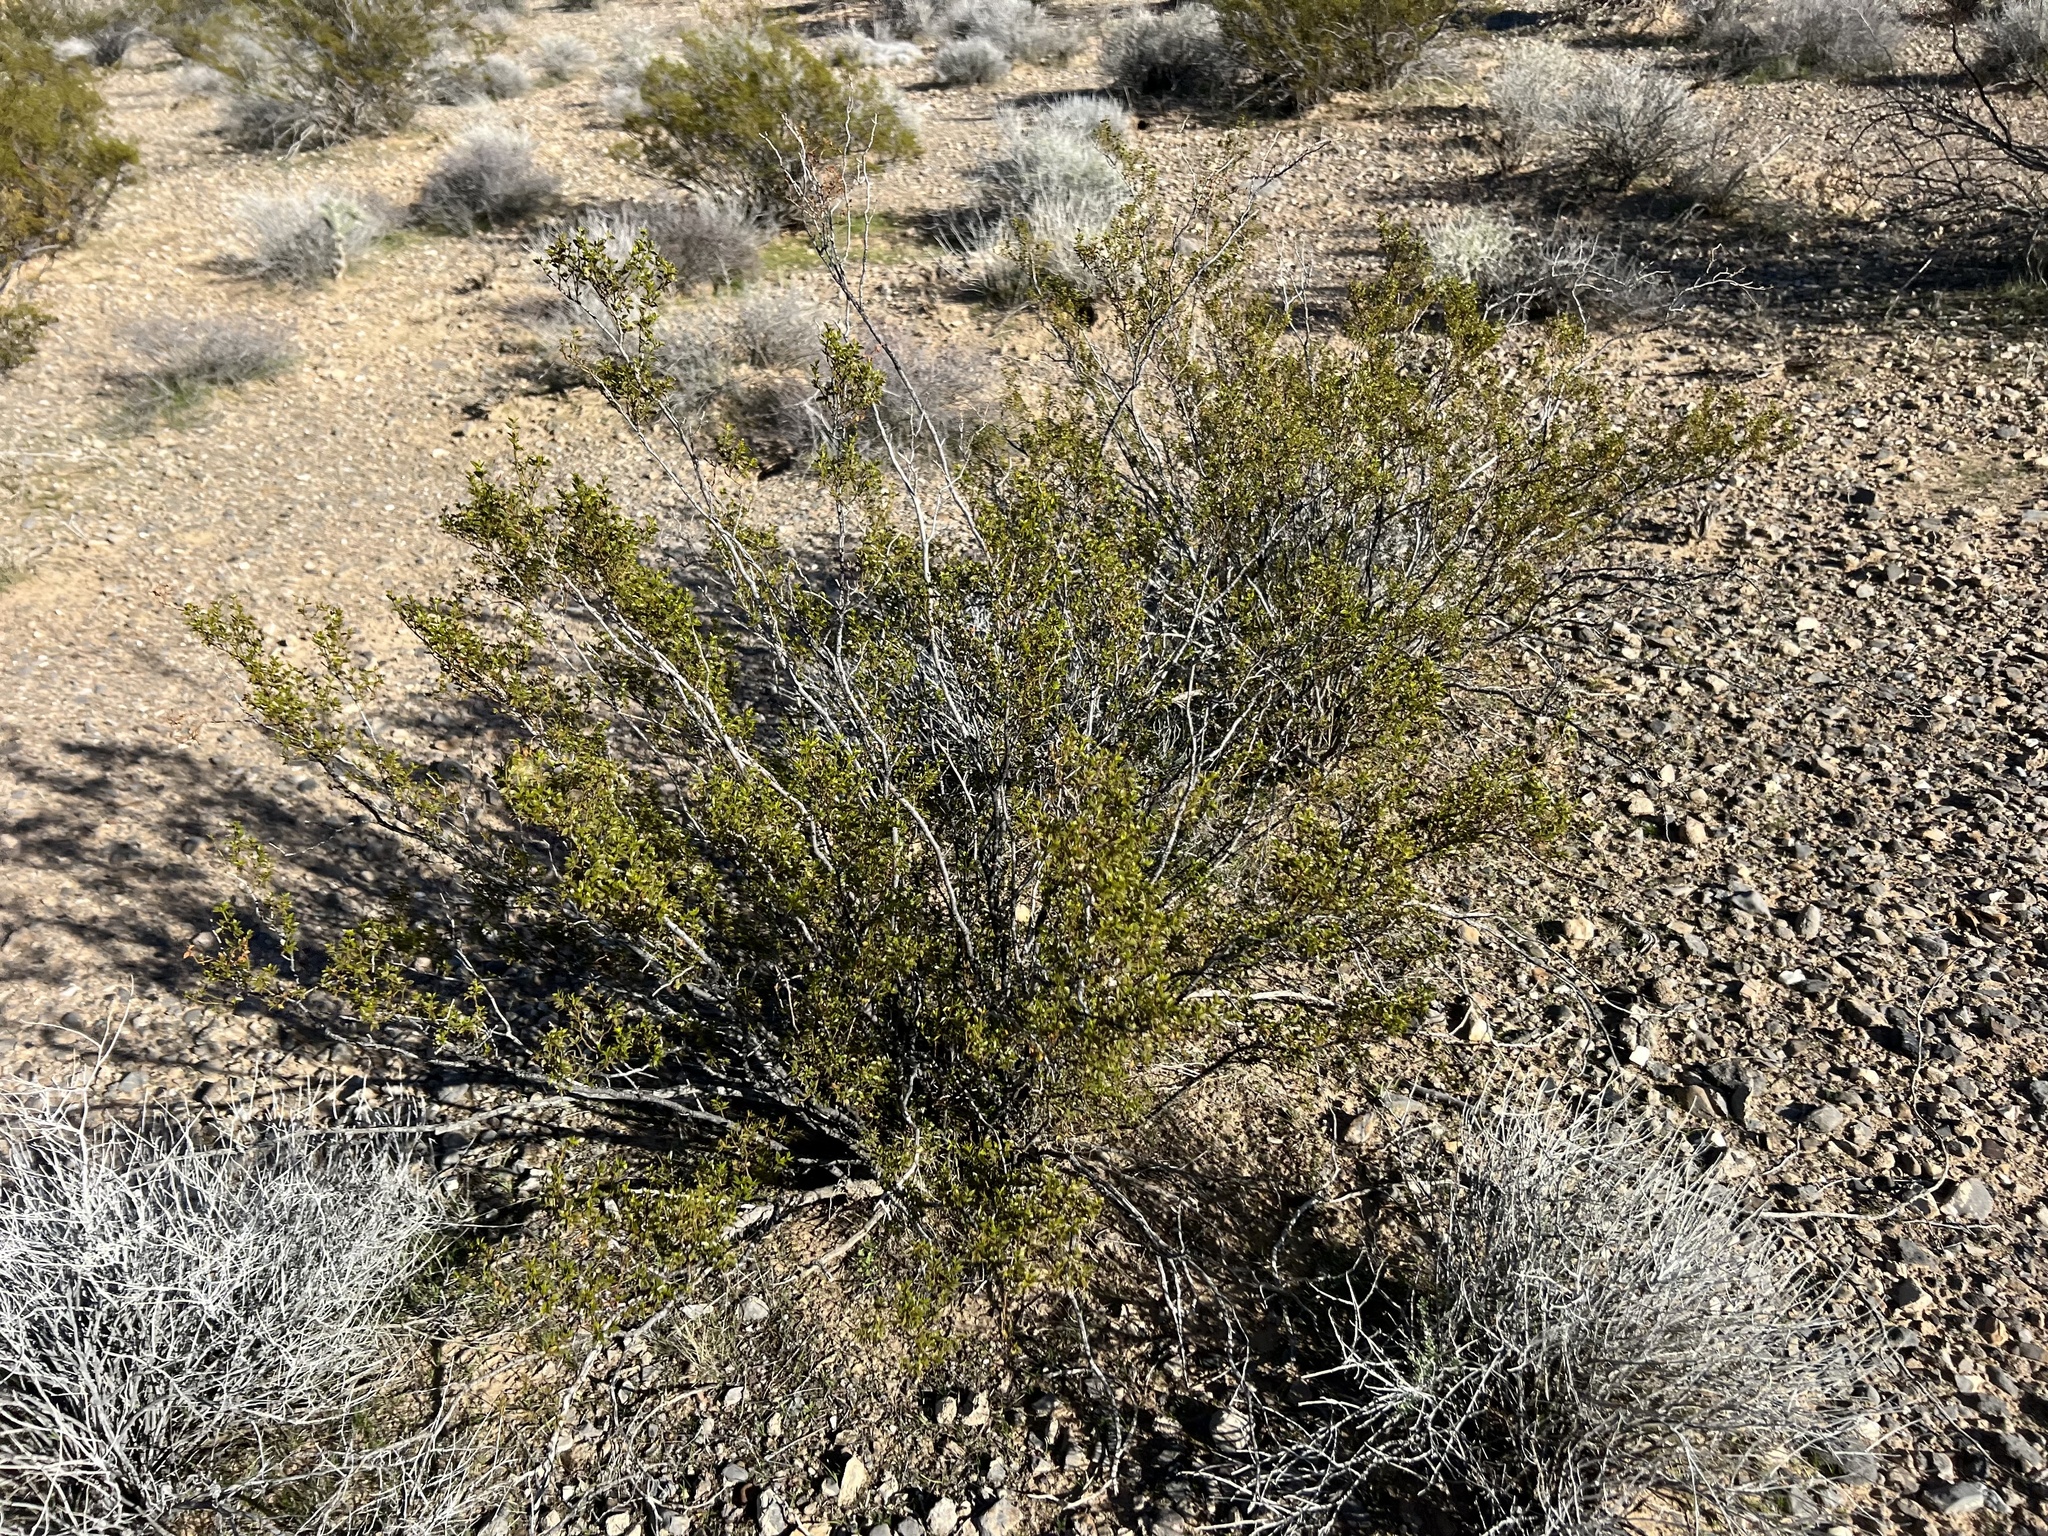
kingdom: Plantae
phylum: Tracheophyta
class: Magnoliopsida
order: Zygophyllales
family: Zygophyllaceae
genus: Larrea
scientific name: Larrea tridentata
